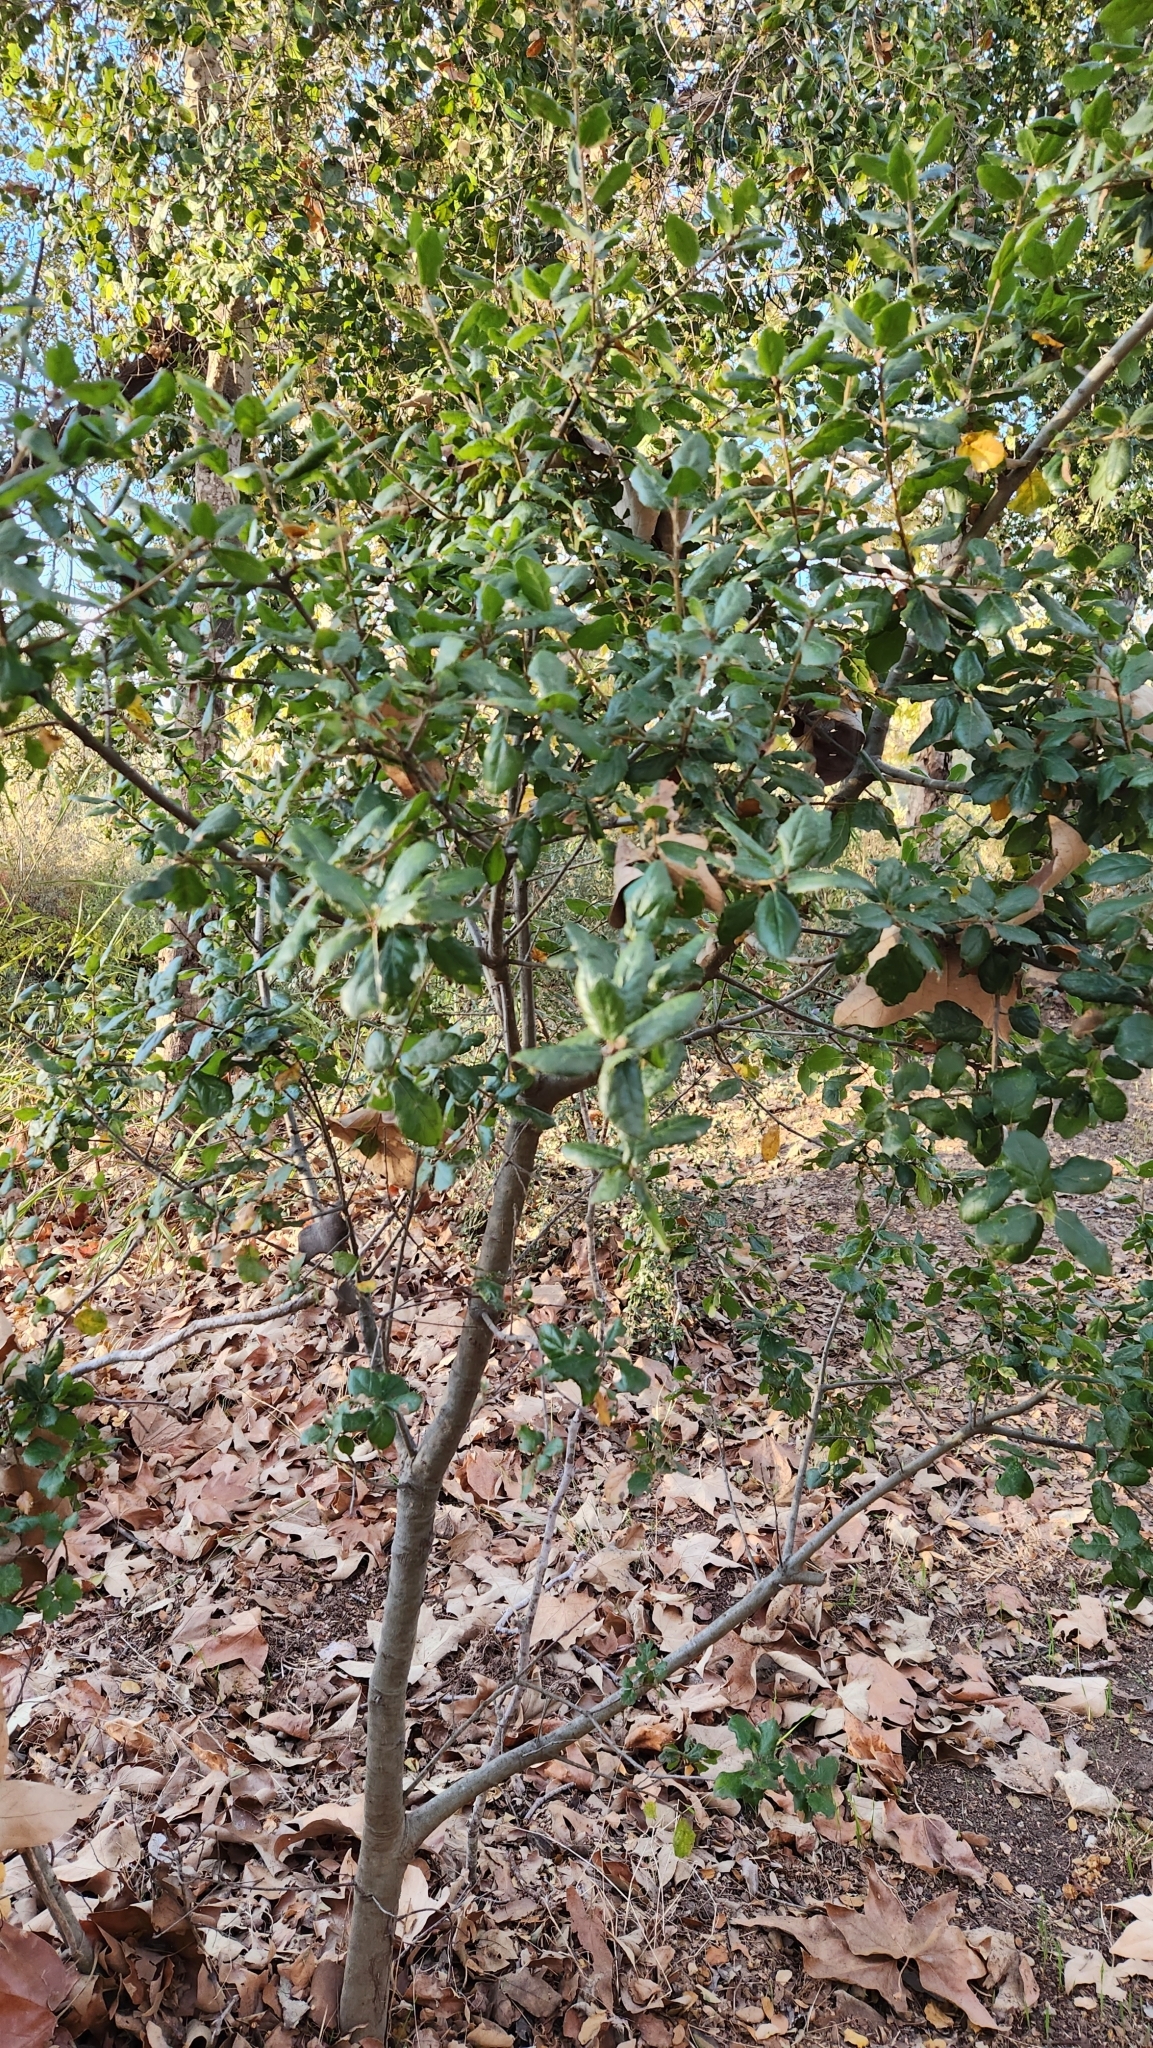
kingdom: Plantae
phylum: Tracheophyta
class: Magnoliopsida
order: Fagales
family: Fagaceae
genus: Quercus
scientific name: Quercus agrifolia
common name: California live oak
